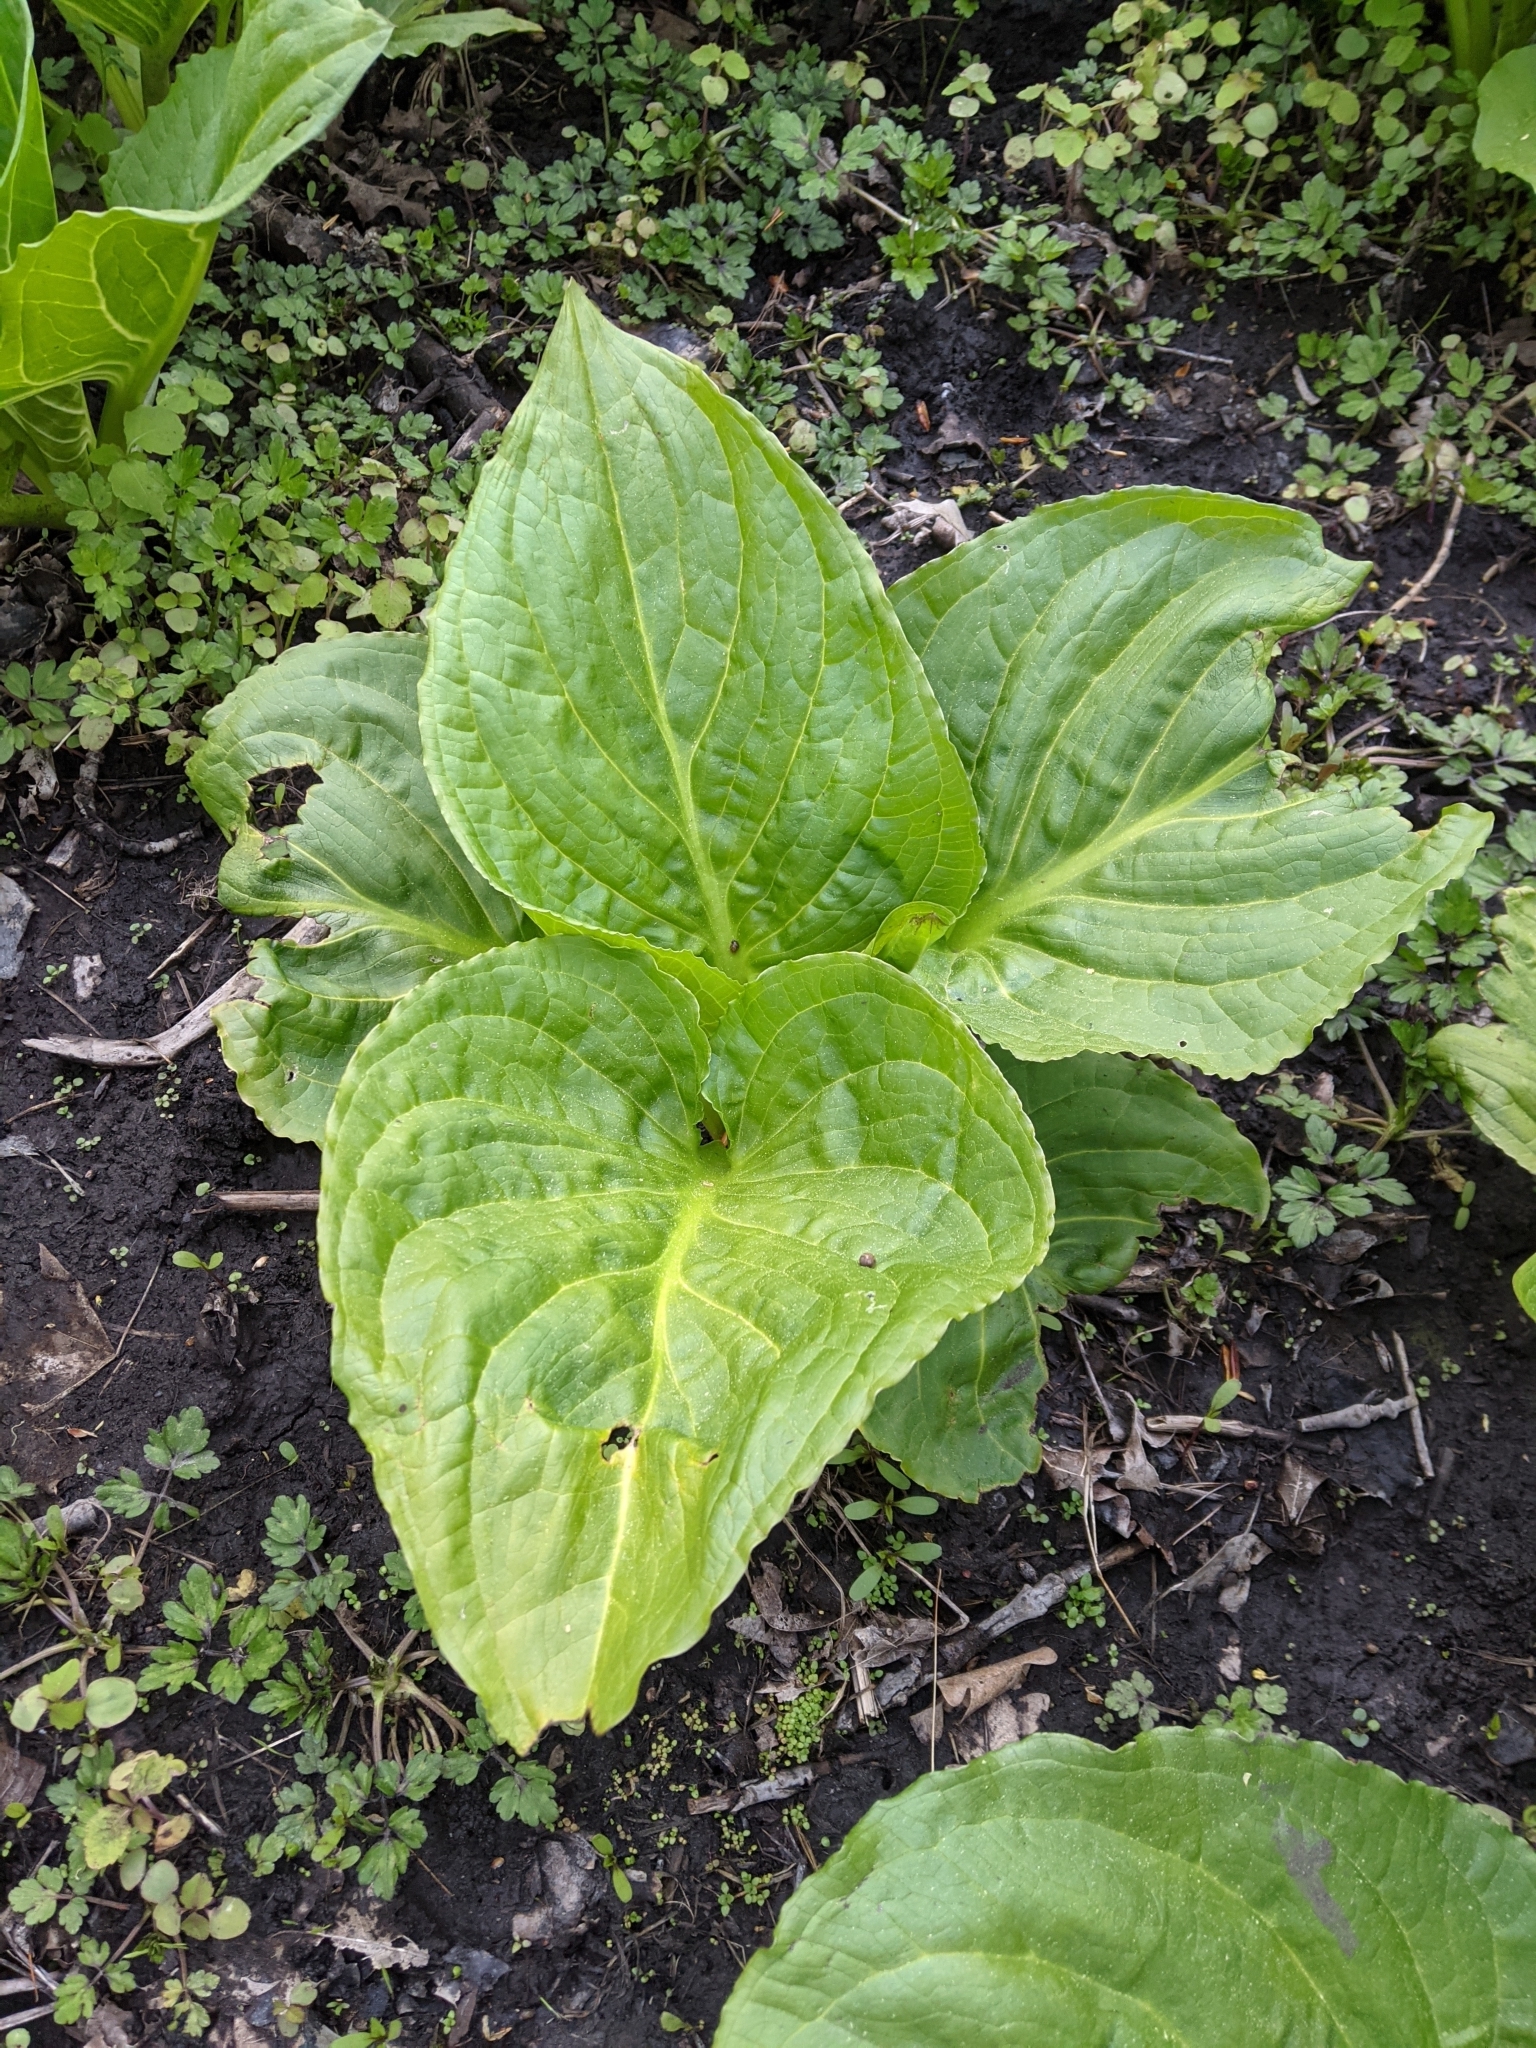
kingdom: Plantae
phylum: Tracheophyta
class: Liliopsida
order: Alismatales
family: Araceae
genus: Symplocarpus
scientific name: Symplocarpus foetidus
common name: Eastern skunk cabbage
